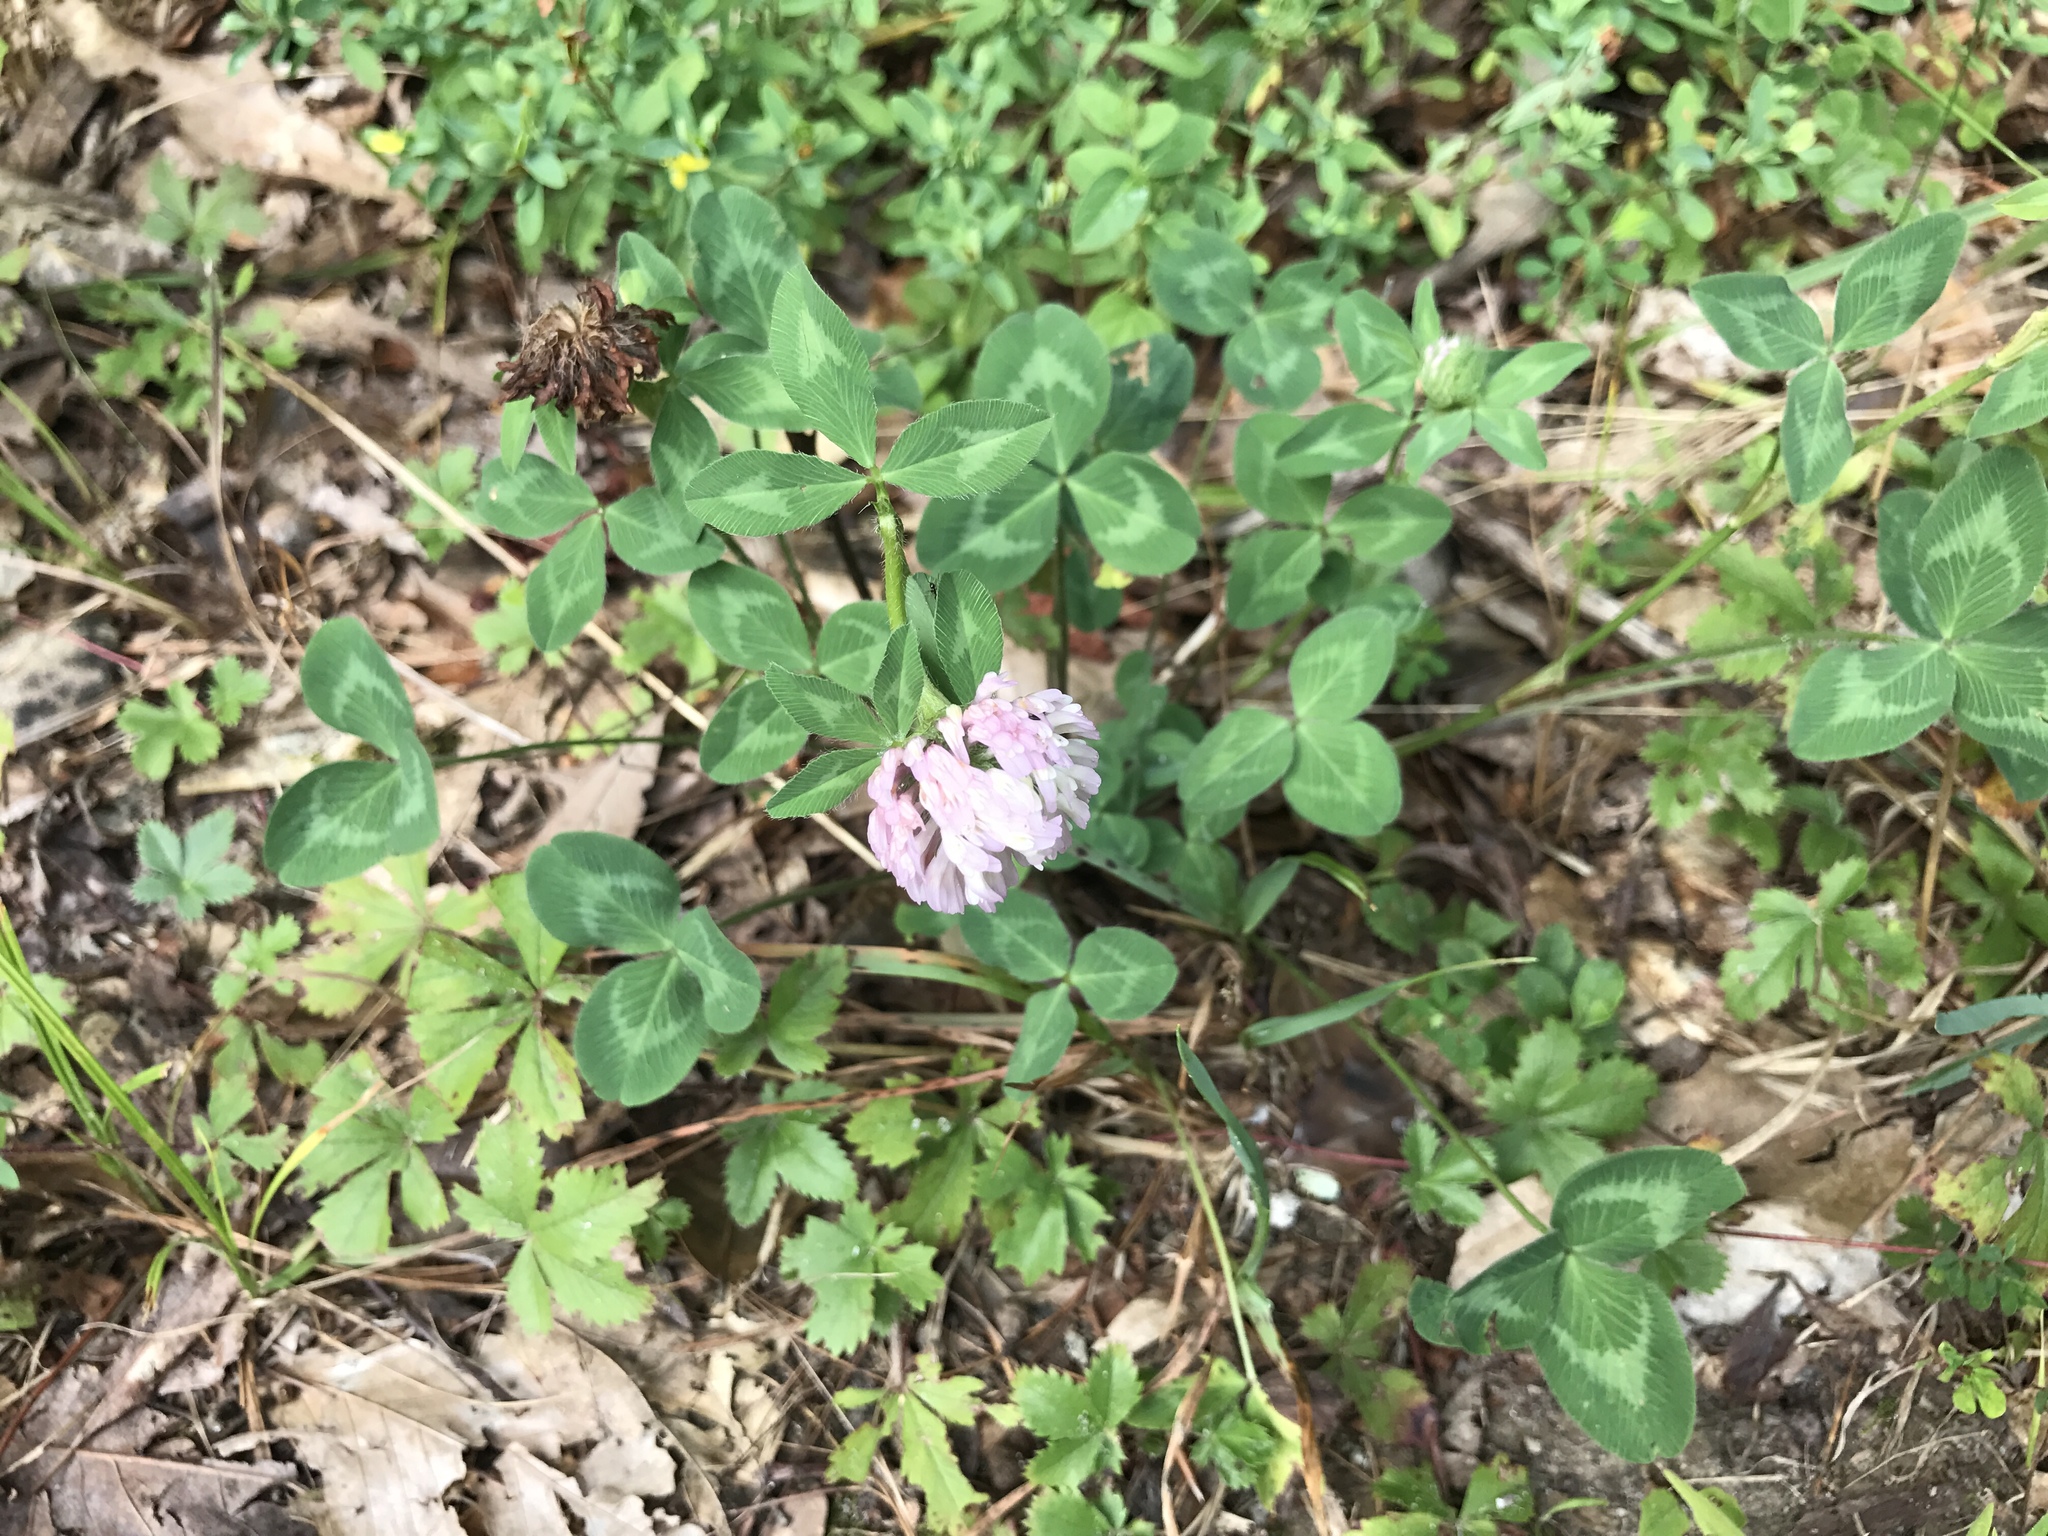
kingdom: Plantae
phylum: Tracheophyta
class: Magnoliopsida
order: Fabales
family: Fabaceae
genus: Trifolium
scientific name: Trifolium pratense
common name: Red clover
